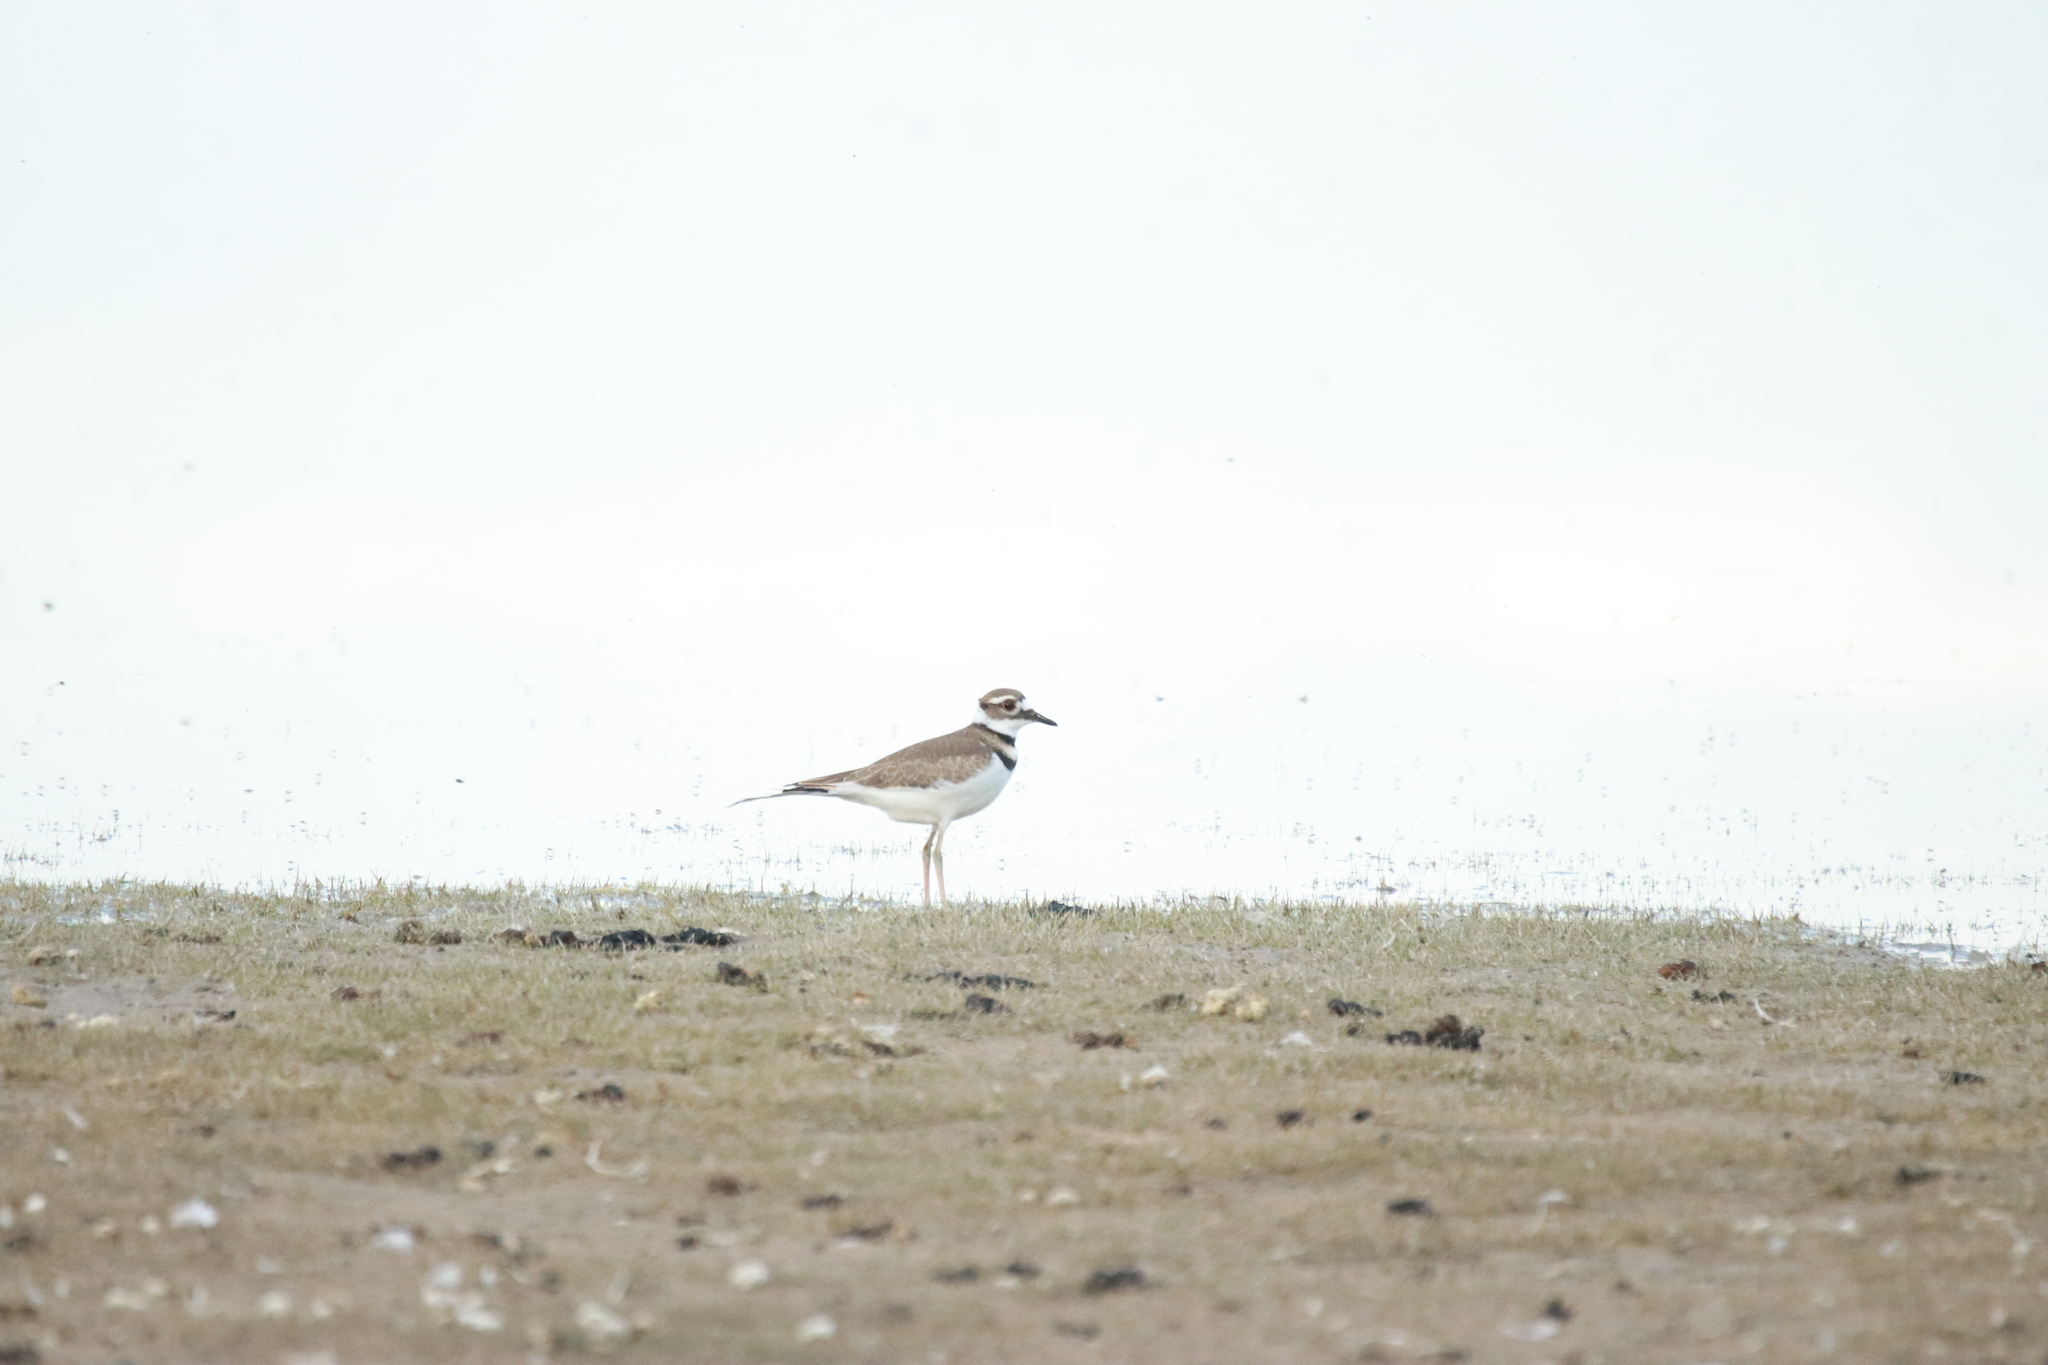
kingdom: Animalia
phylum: Chordata
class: Aves
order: Charadriiformes
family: Charadriidae
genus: Charadrius
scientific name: Charadrius vociferus
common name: Killdeer
